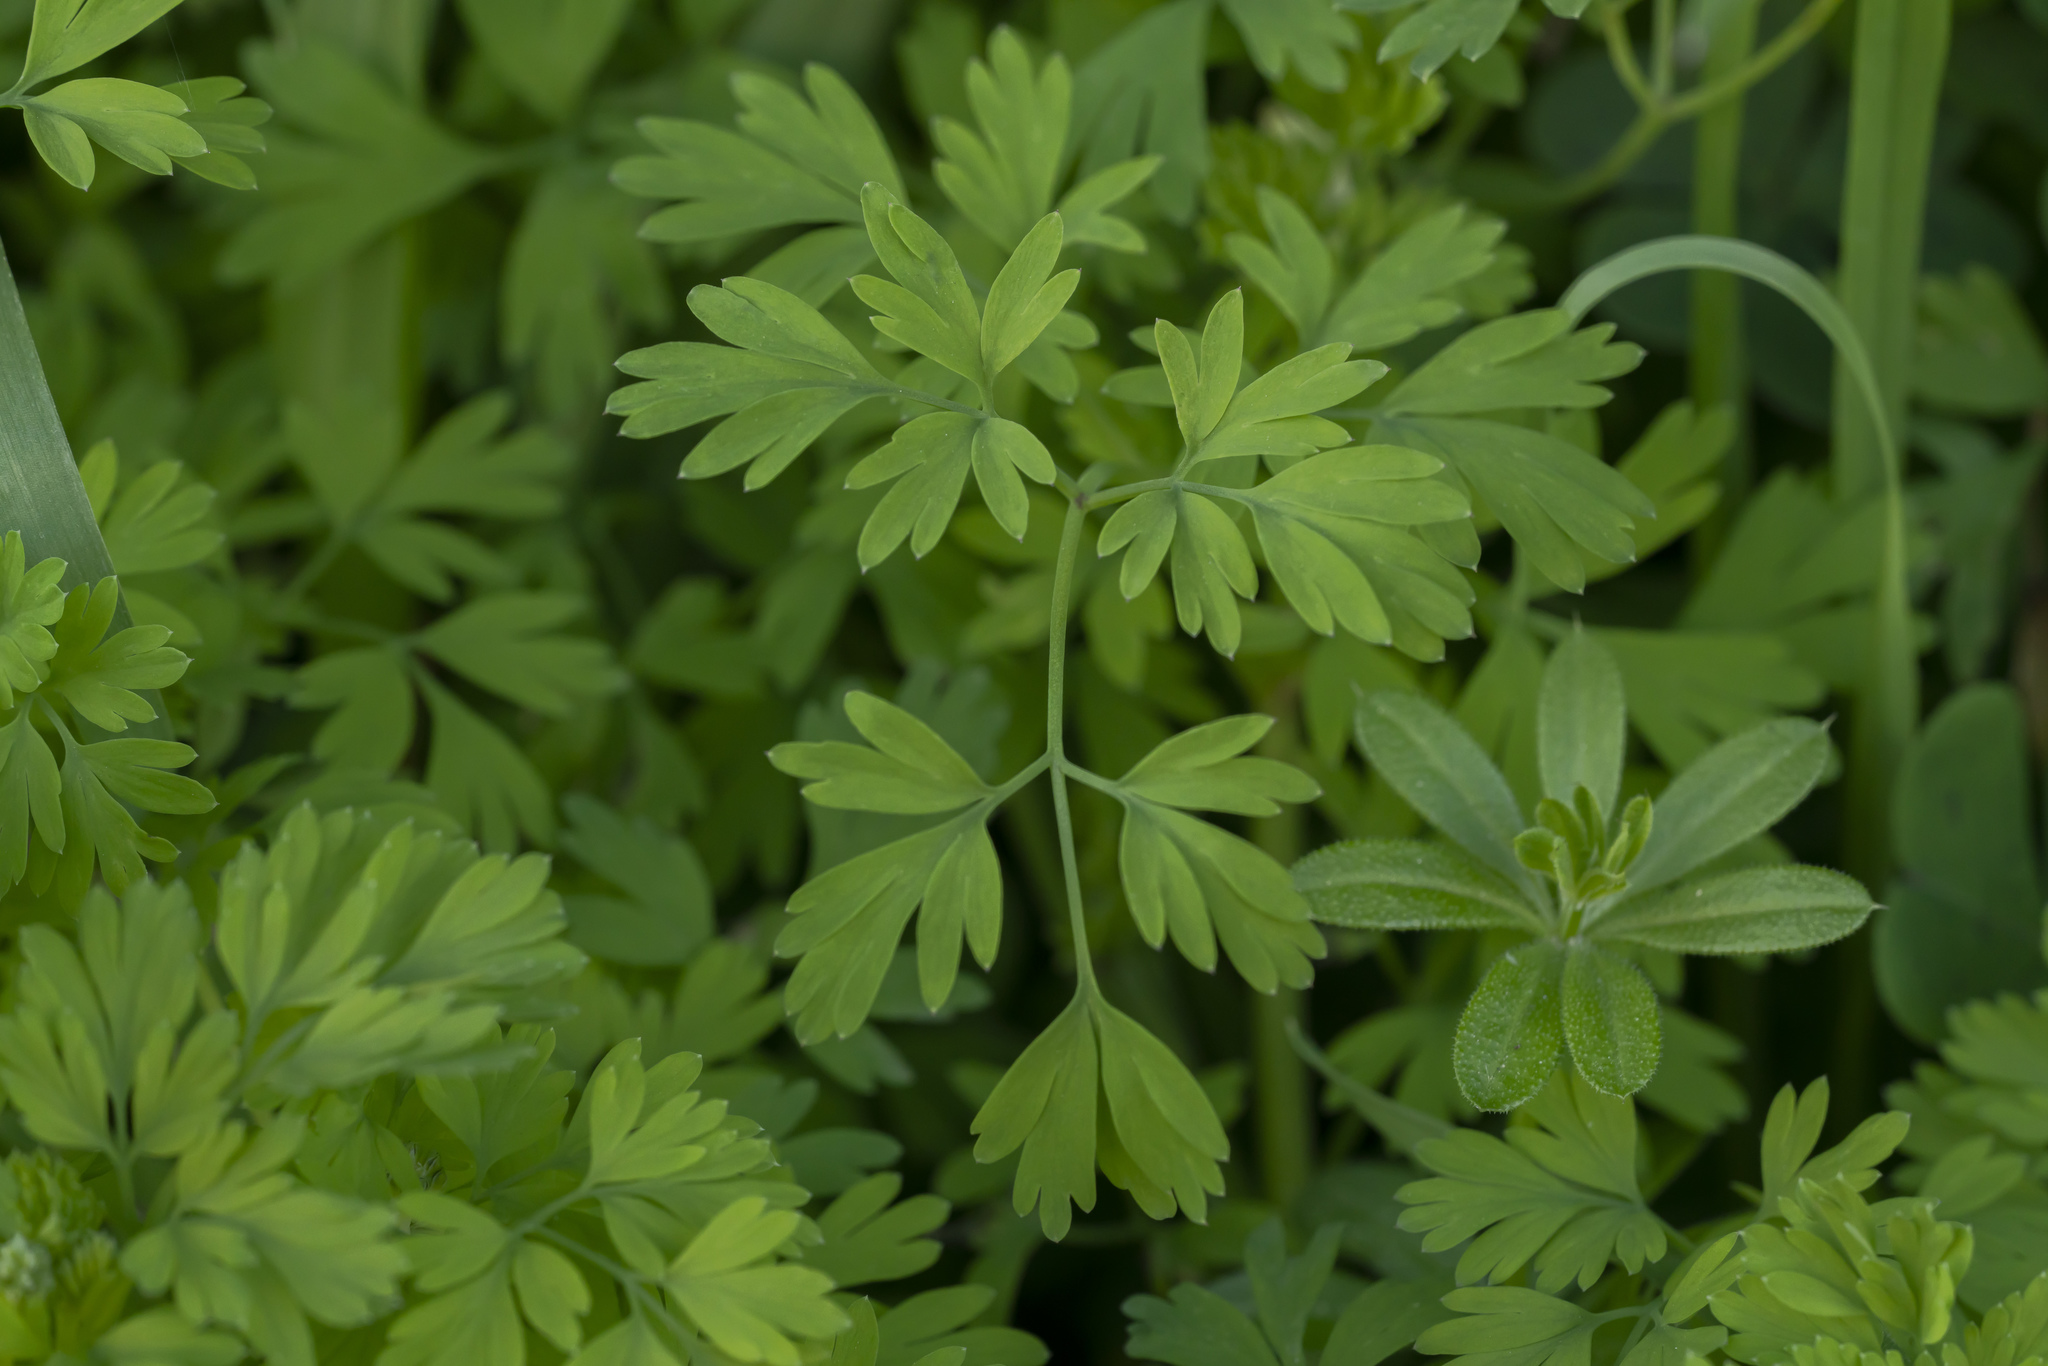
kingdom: Plantae
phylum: Tracheophyta
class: Magnoliopsida
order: Ranunculales
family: Papaveraceae
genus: Fumaria
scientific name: Fumaria judaica
